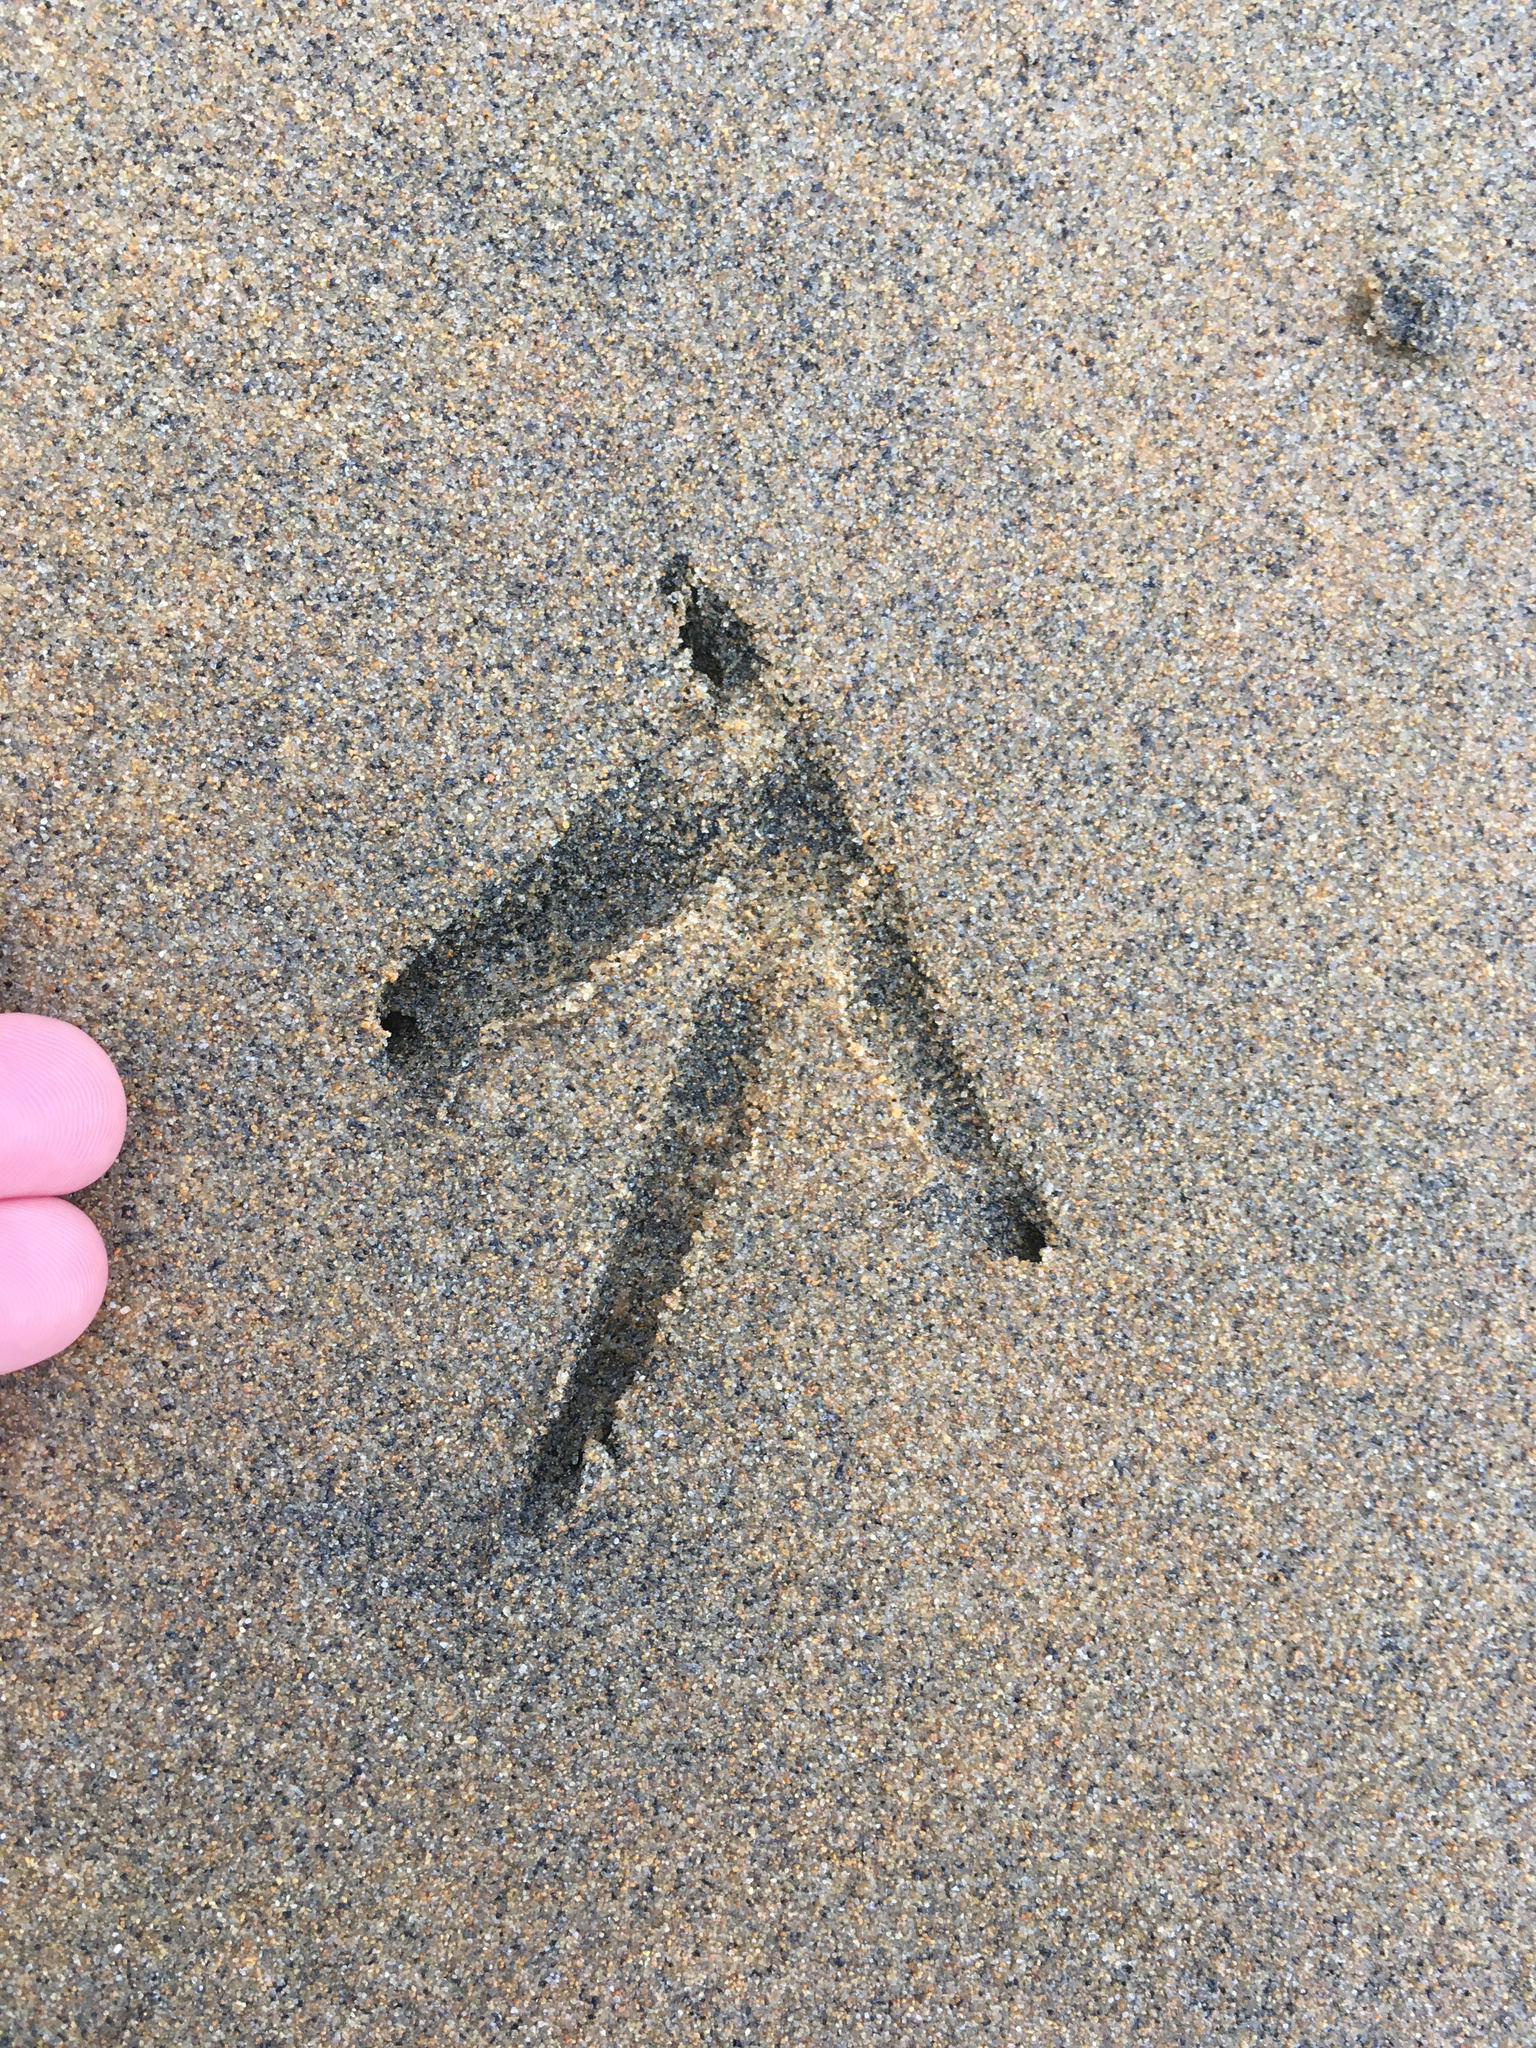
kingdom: Animalia
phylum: Chordata
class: Aves
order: Gruiformes
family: Rallidae
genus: Gallirallus
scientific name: Gallirallus australis
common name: Weka
